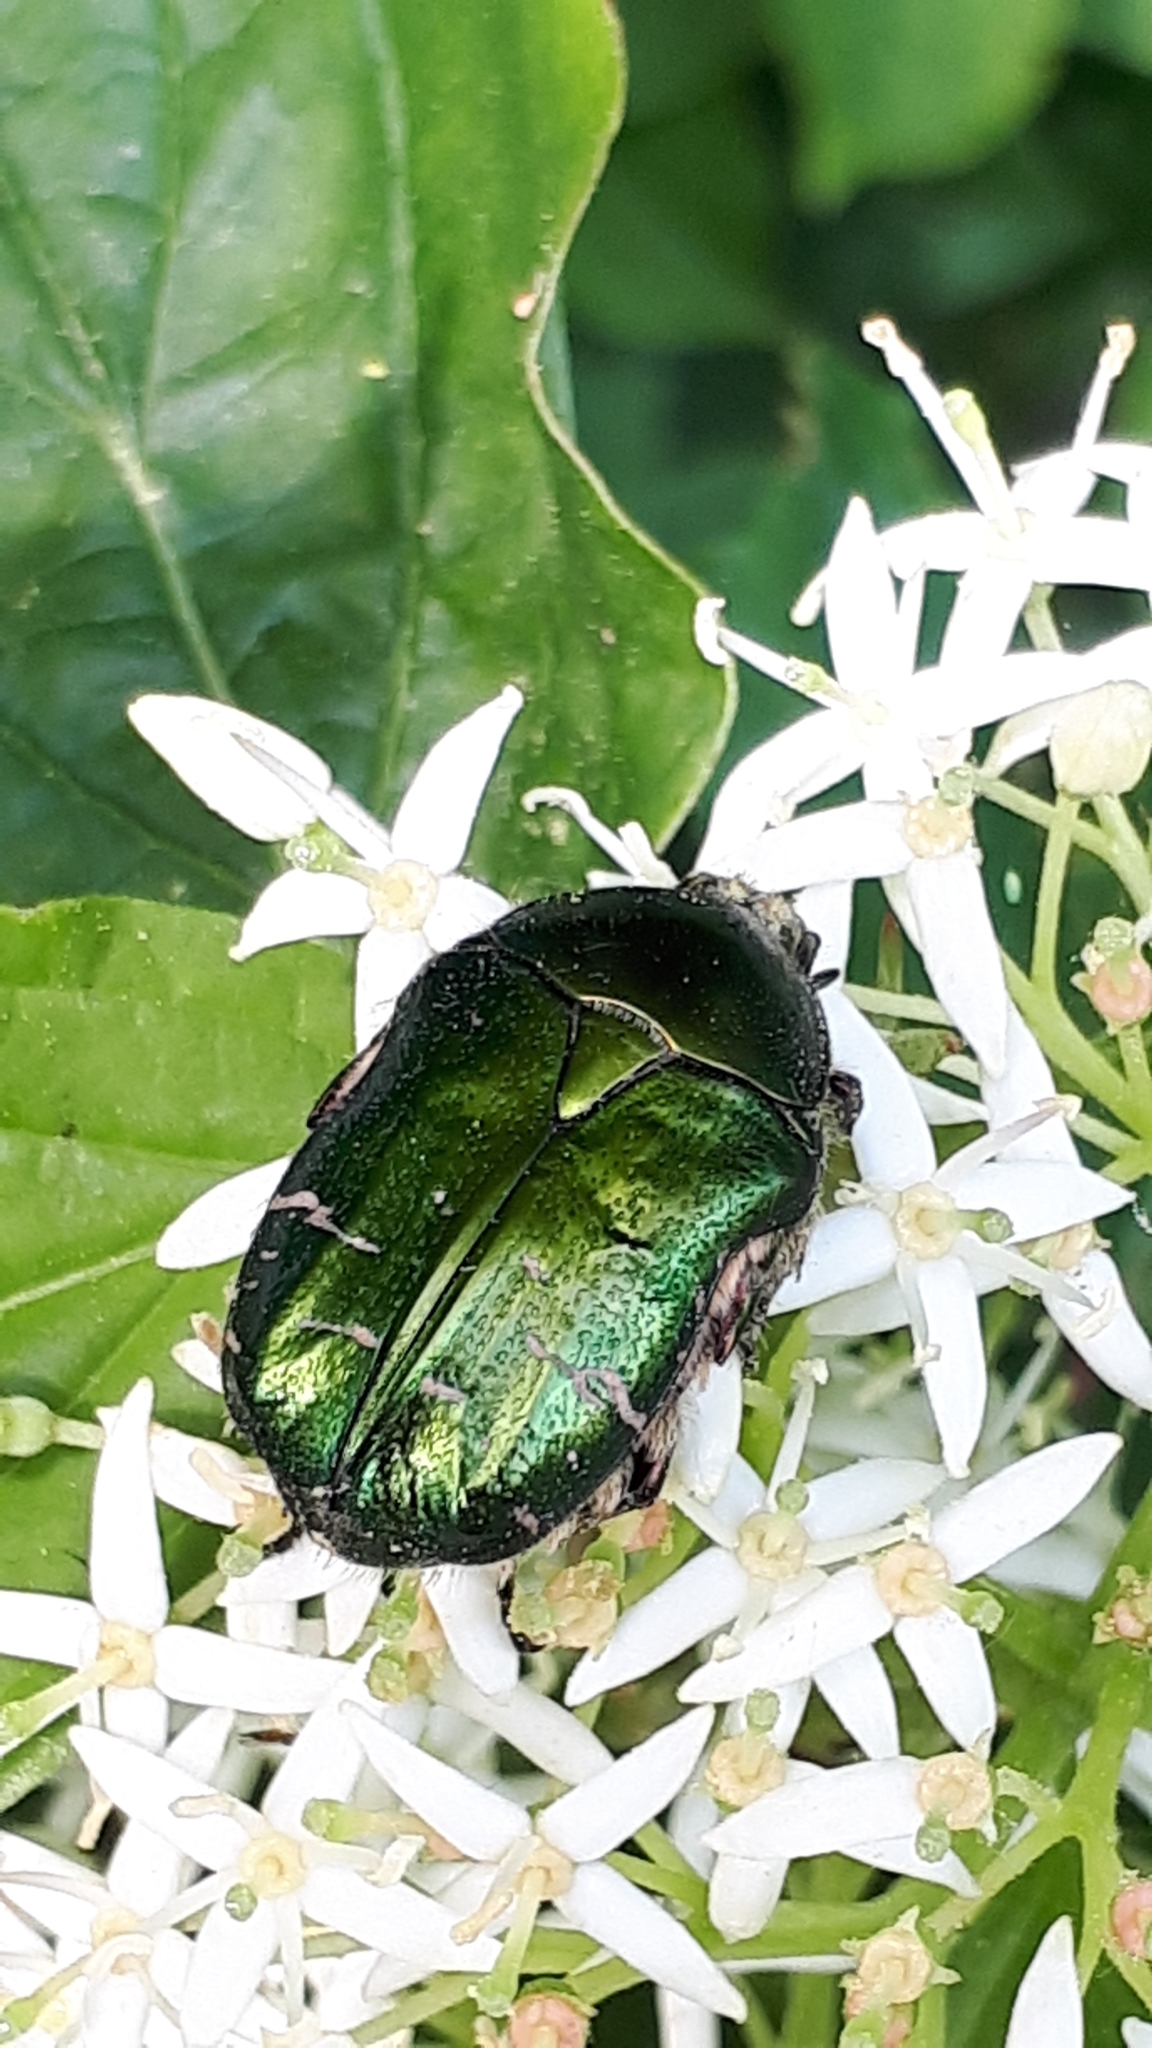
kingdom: Animalia
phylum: Arthropoda
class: Insecta
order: Coleoptera
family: Scarabaeidae
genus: Cetonia
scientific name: Cetonia aurata
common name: Rose chafer
